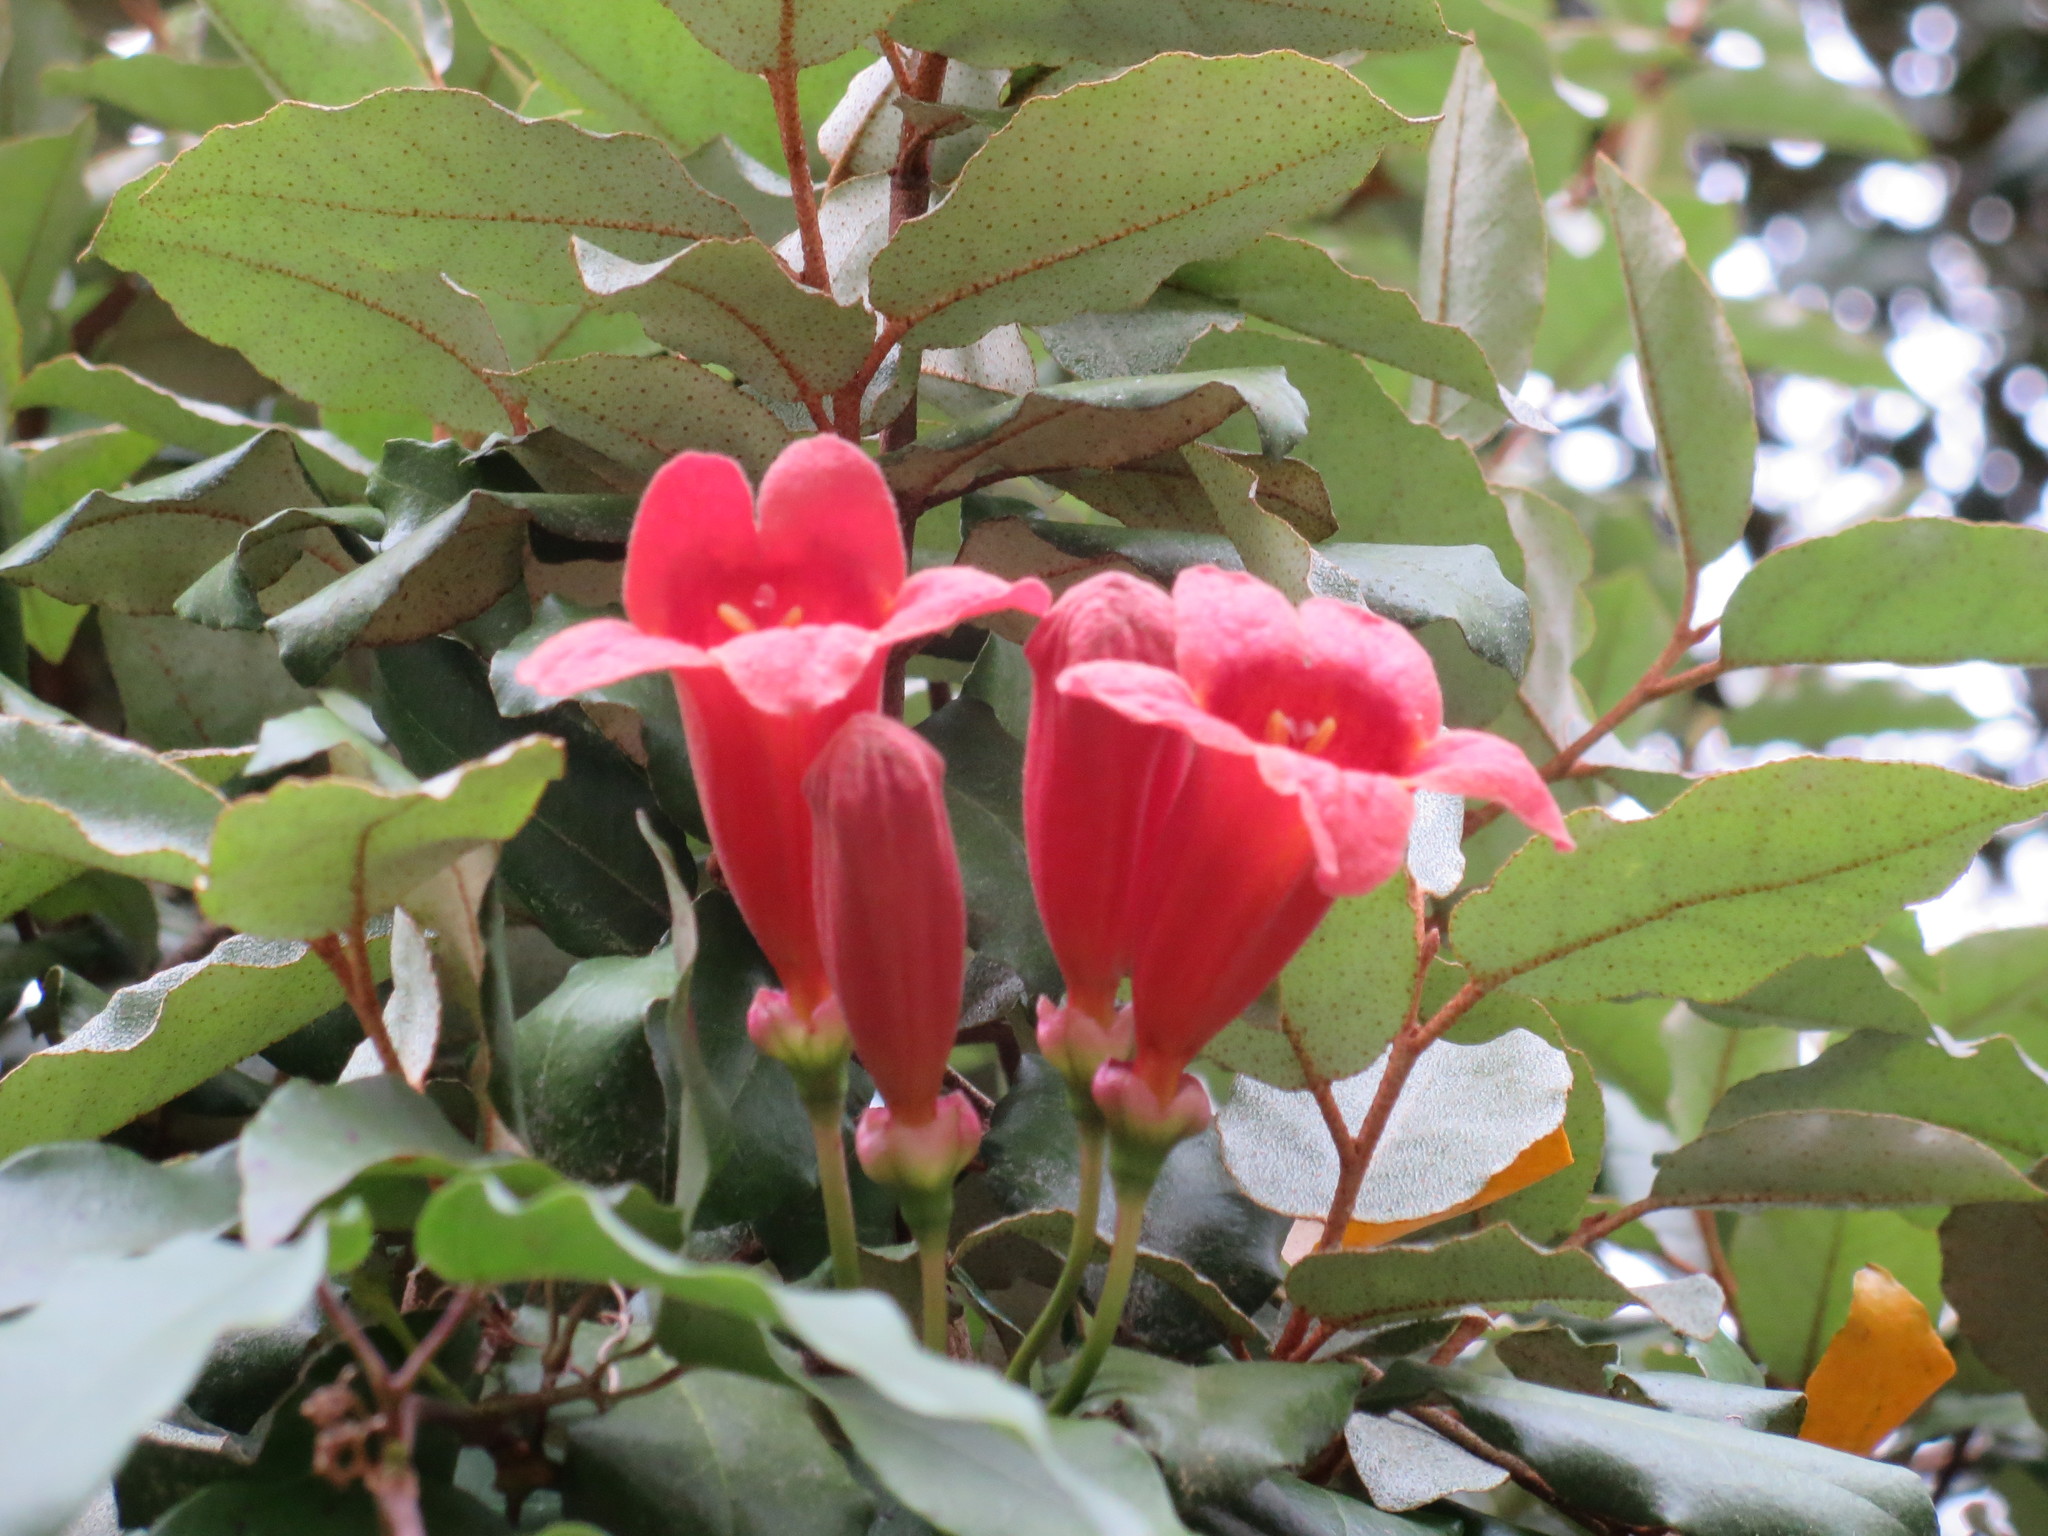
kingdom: Plantae
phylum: Tracheophyta
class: Magnoliopsida
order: Lamiales
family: Bignoniaceae
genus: Bignonia
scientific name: Bignonia capreolata
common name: Crossvine
